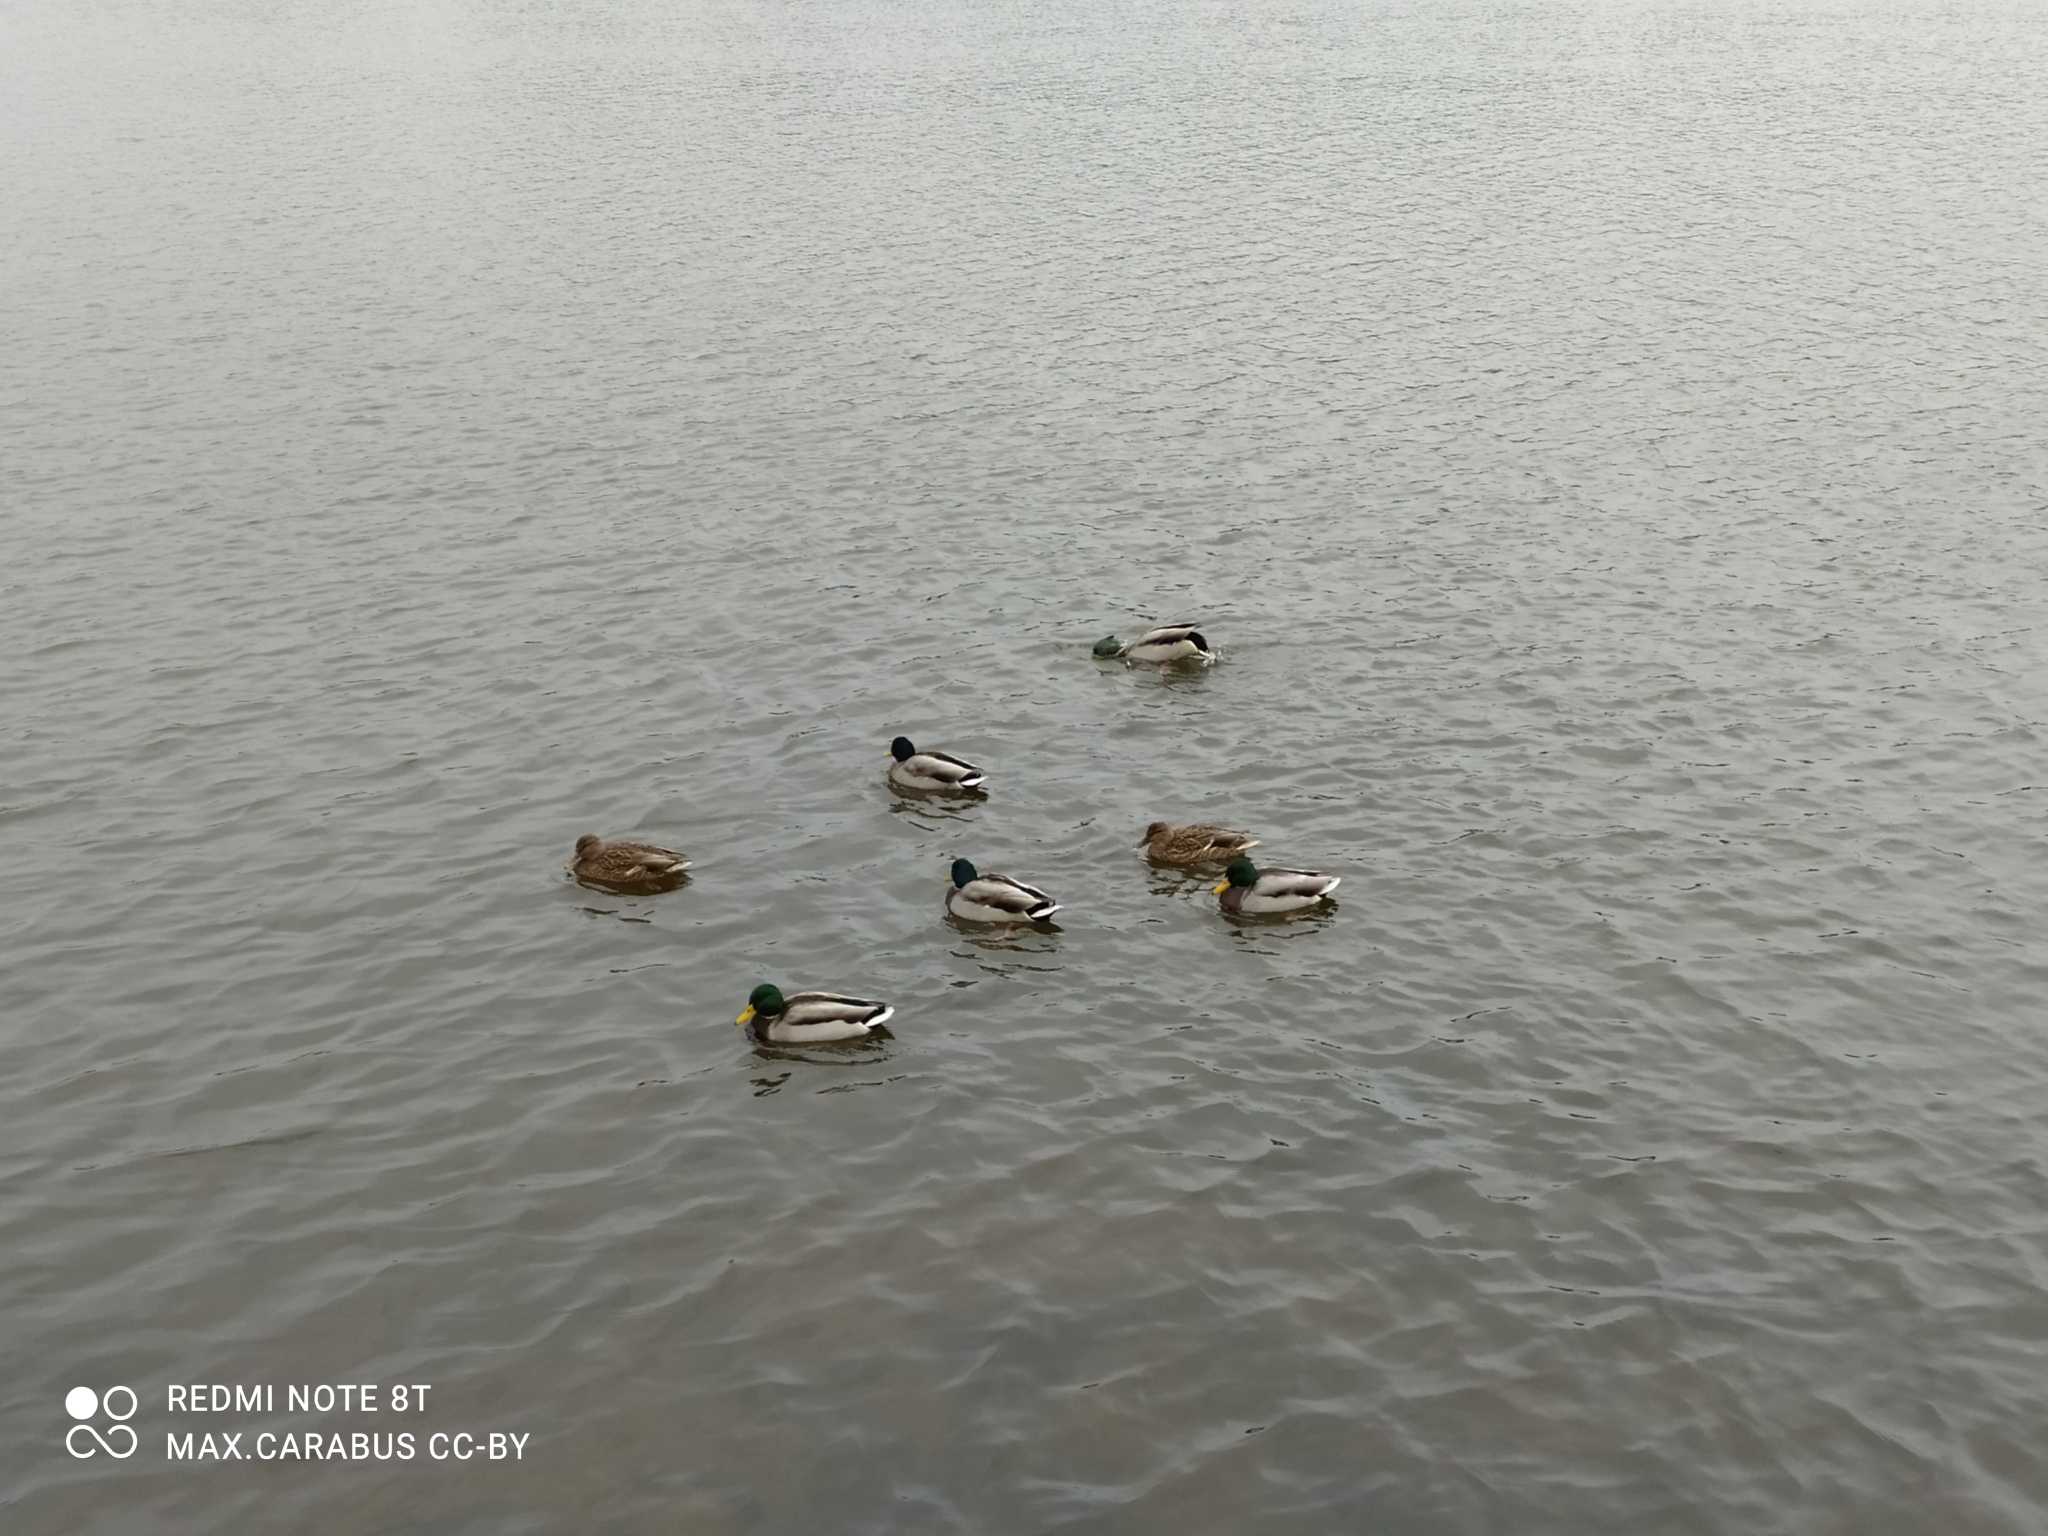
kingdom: Animalia
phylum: Chordata
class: Aves
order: Anseriformes
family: Anatidae
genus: Anas
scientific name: Anas platyrhynchos
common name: Mallard
